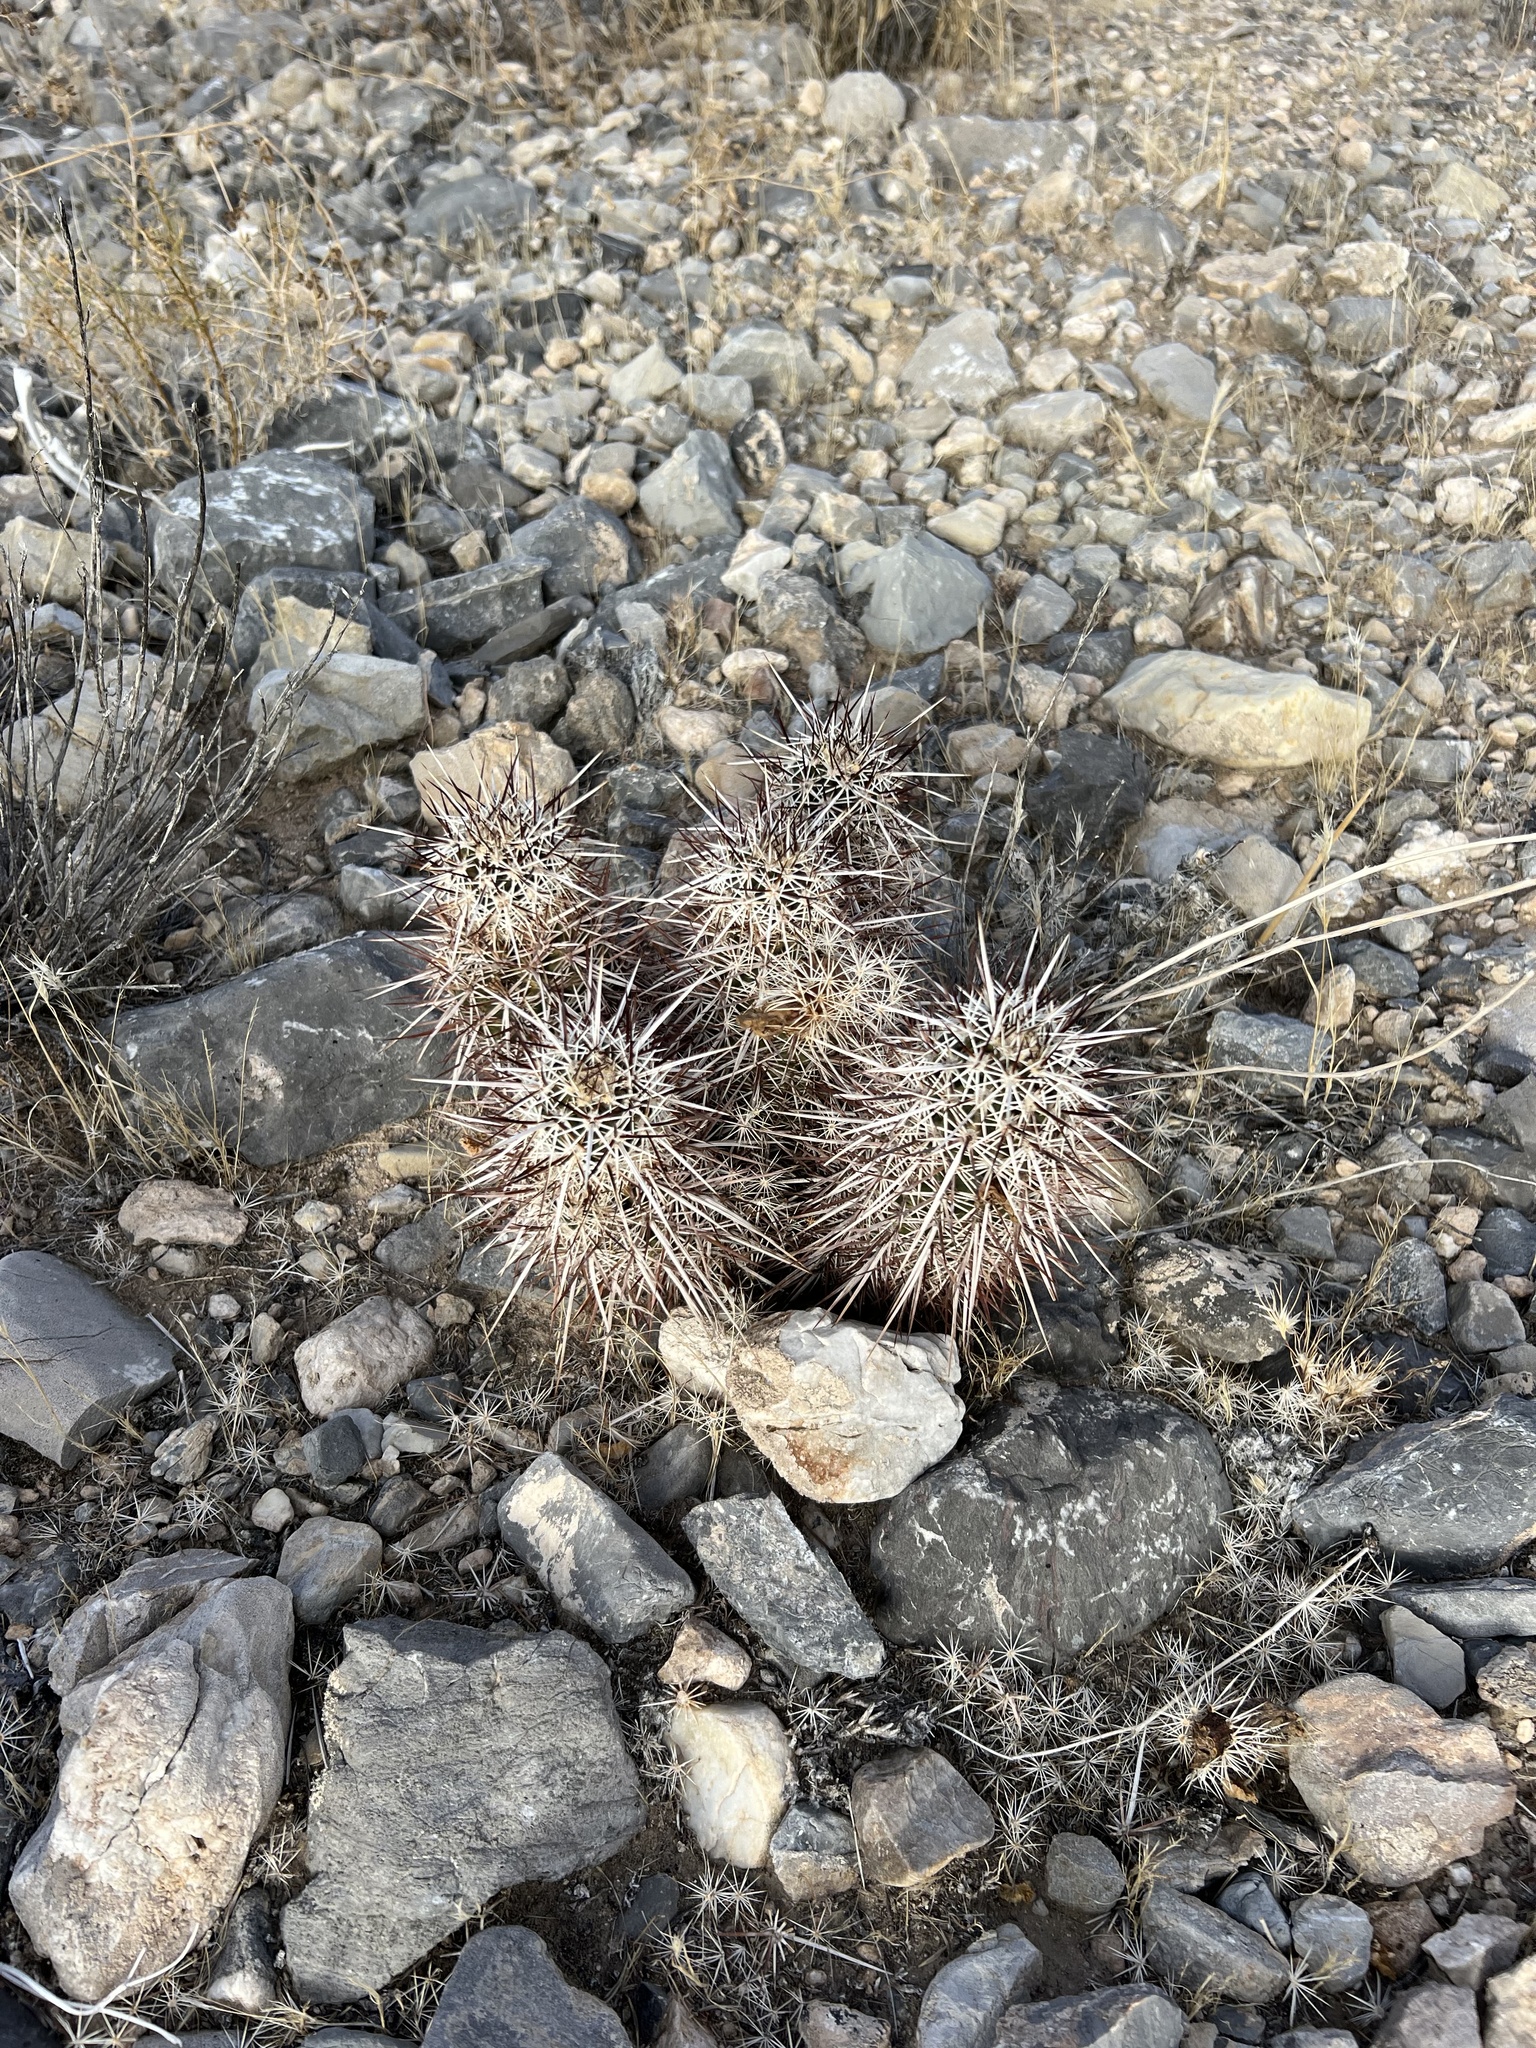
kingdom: Plantae
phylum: Tracheophyta
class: Magnoliopsida
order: Caryophyllales
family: Cactaceae
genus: Echinocereus
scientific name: Echinocereus engelmannii
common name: Engelmann's hedgehog cactus
